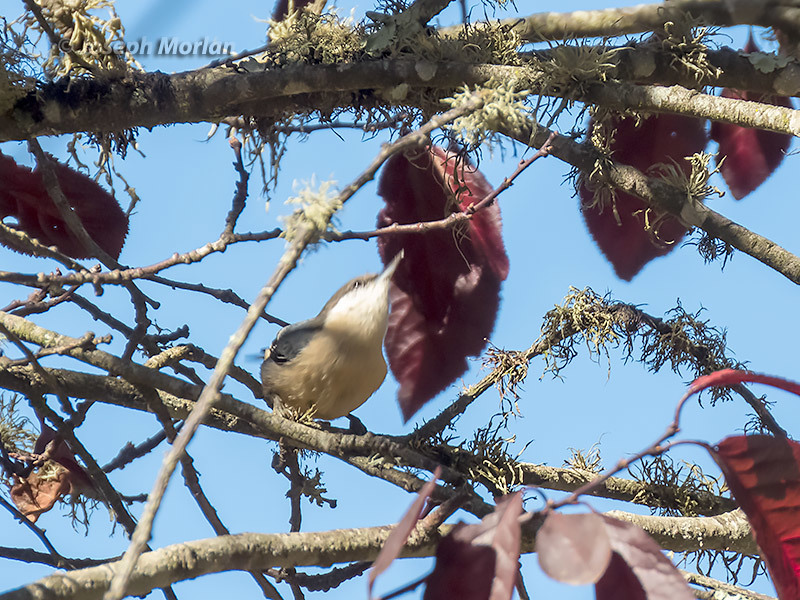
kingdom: Animalia
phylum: Chordata
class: Aves
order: Passeriformes
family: Sittidae
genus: Sitta
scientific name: Sitta pygmaea
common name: Pygmy nuthatch
